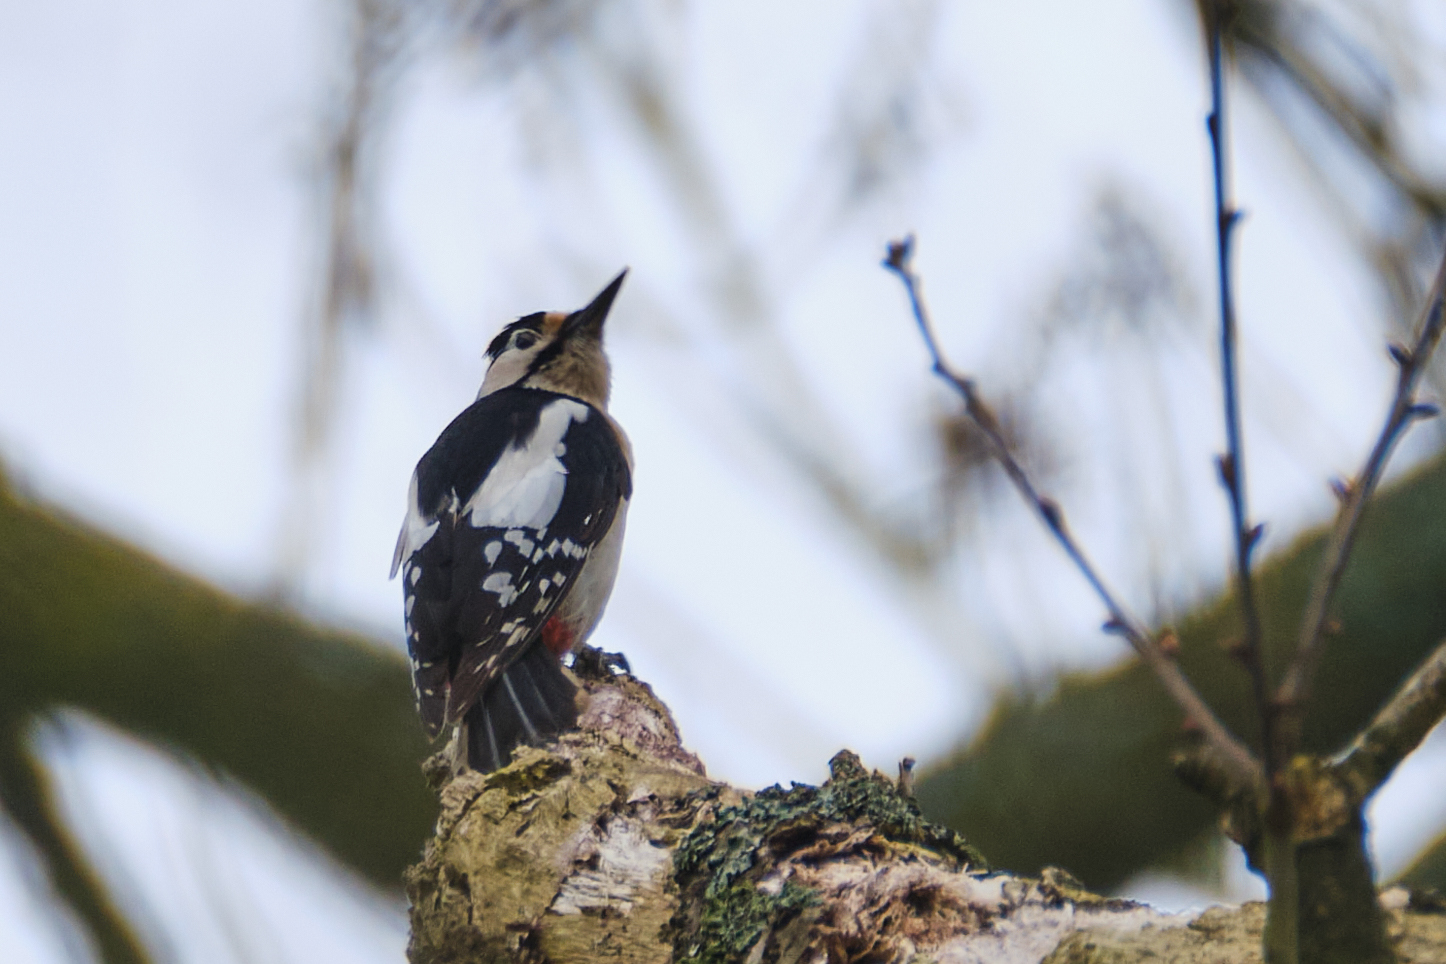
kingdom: Animalia
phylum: Chordata
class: Aves
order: Piciformes
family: Picidae
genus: Dendrocopos
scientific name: Dendrocopos major
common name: Great spotted woodpecker
